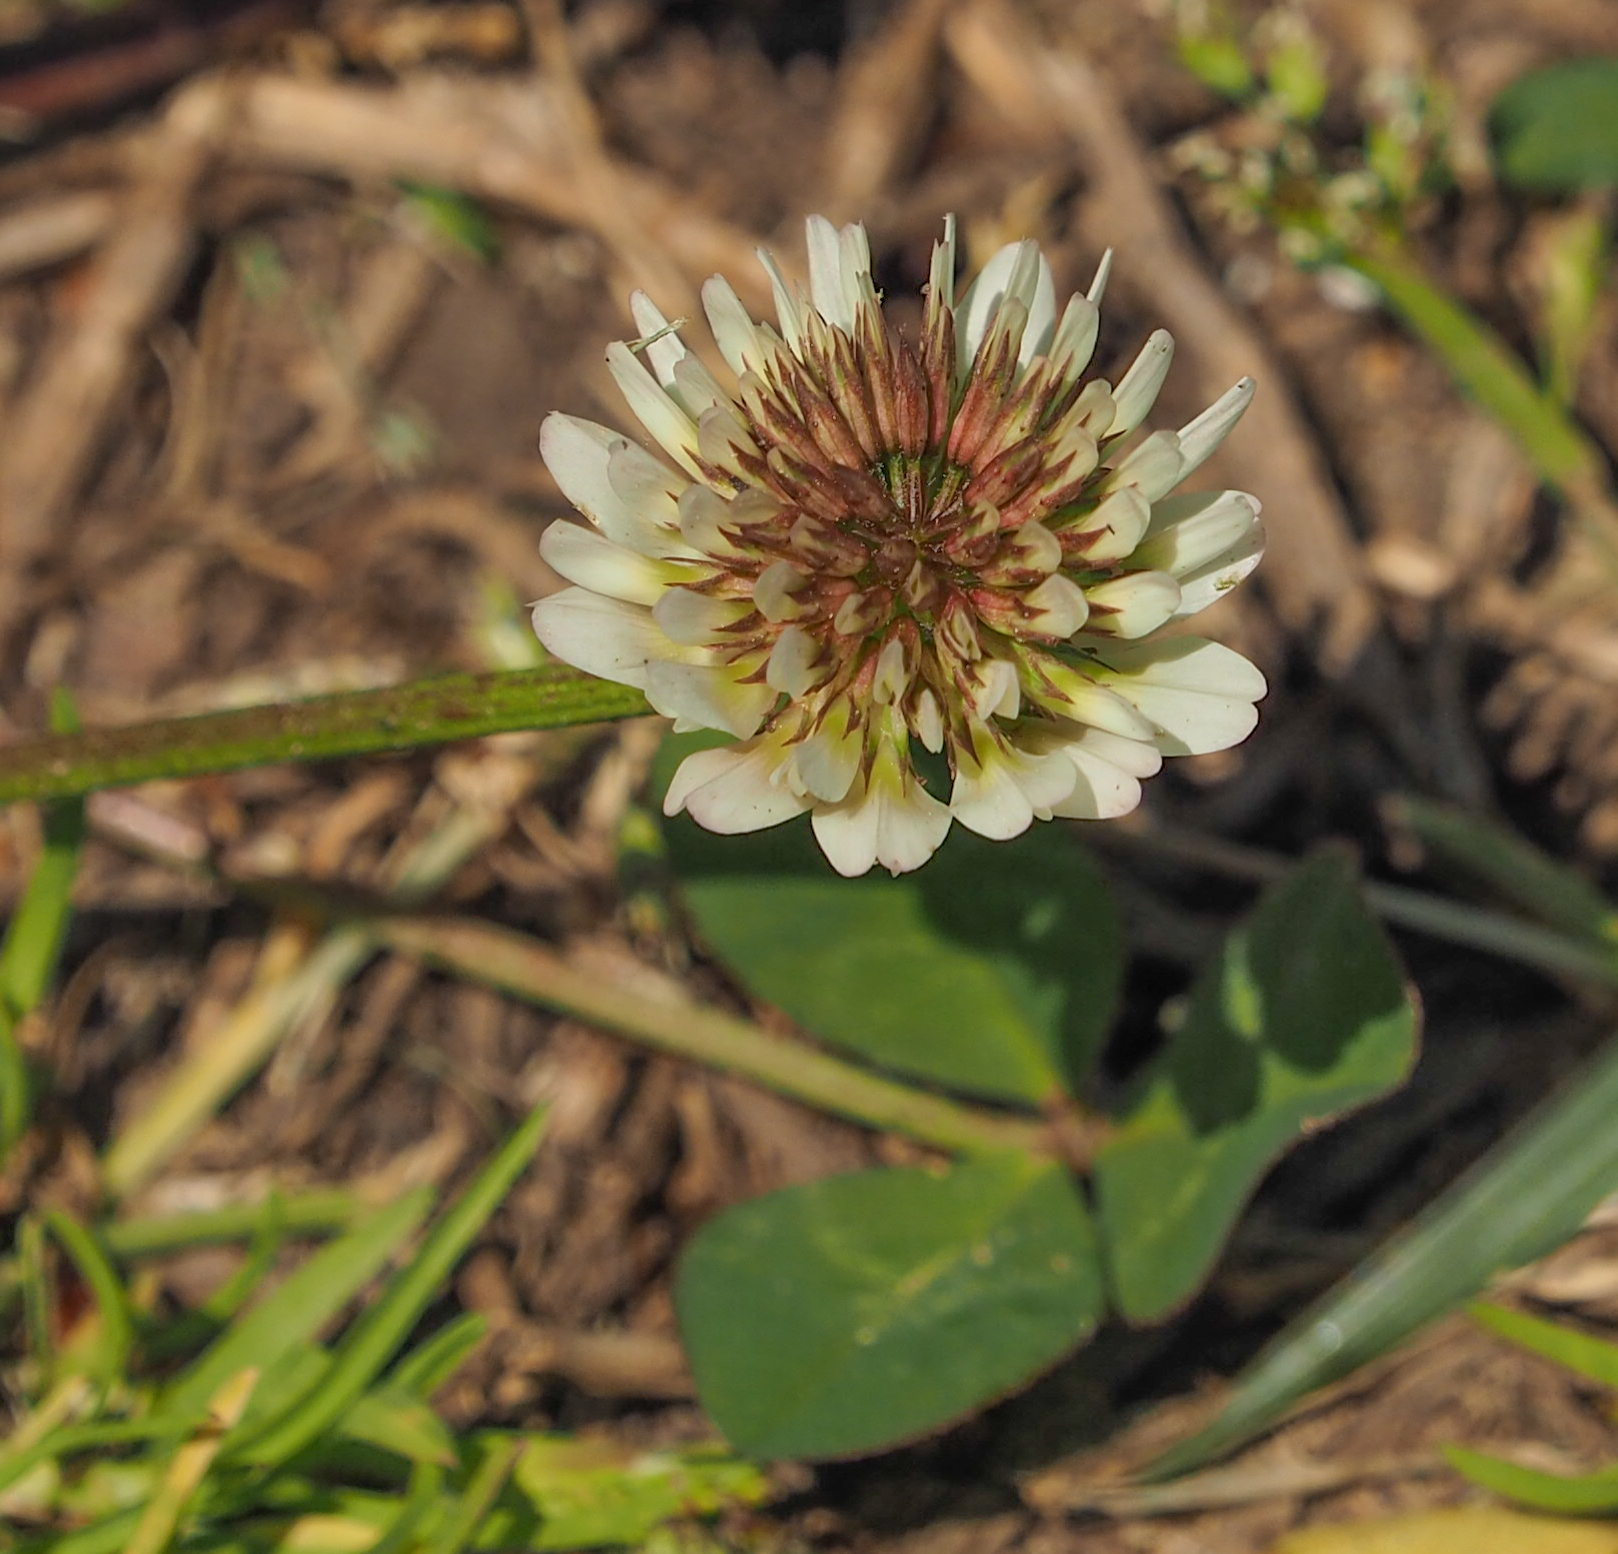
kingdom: Plantae
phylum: Tracheophyta
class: Magnoliopsida
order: Fabales
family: Fabaceae
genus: Trifolium
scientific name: Trifolium repens
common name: White clover
